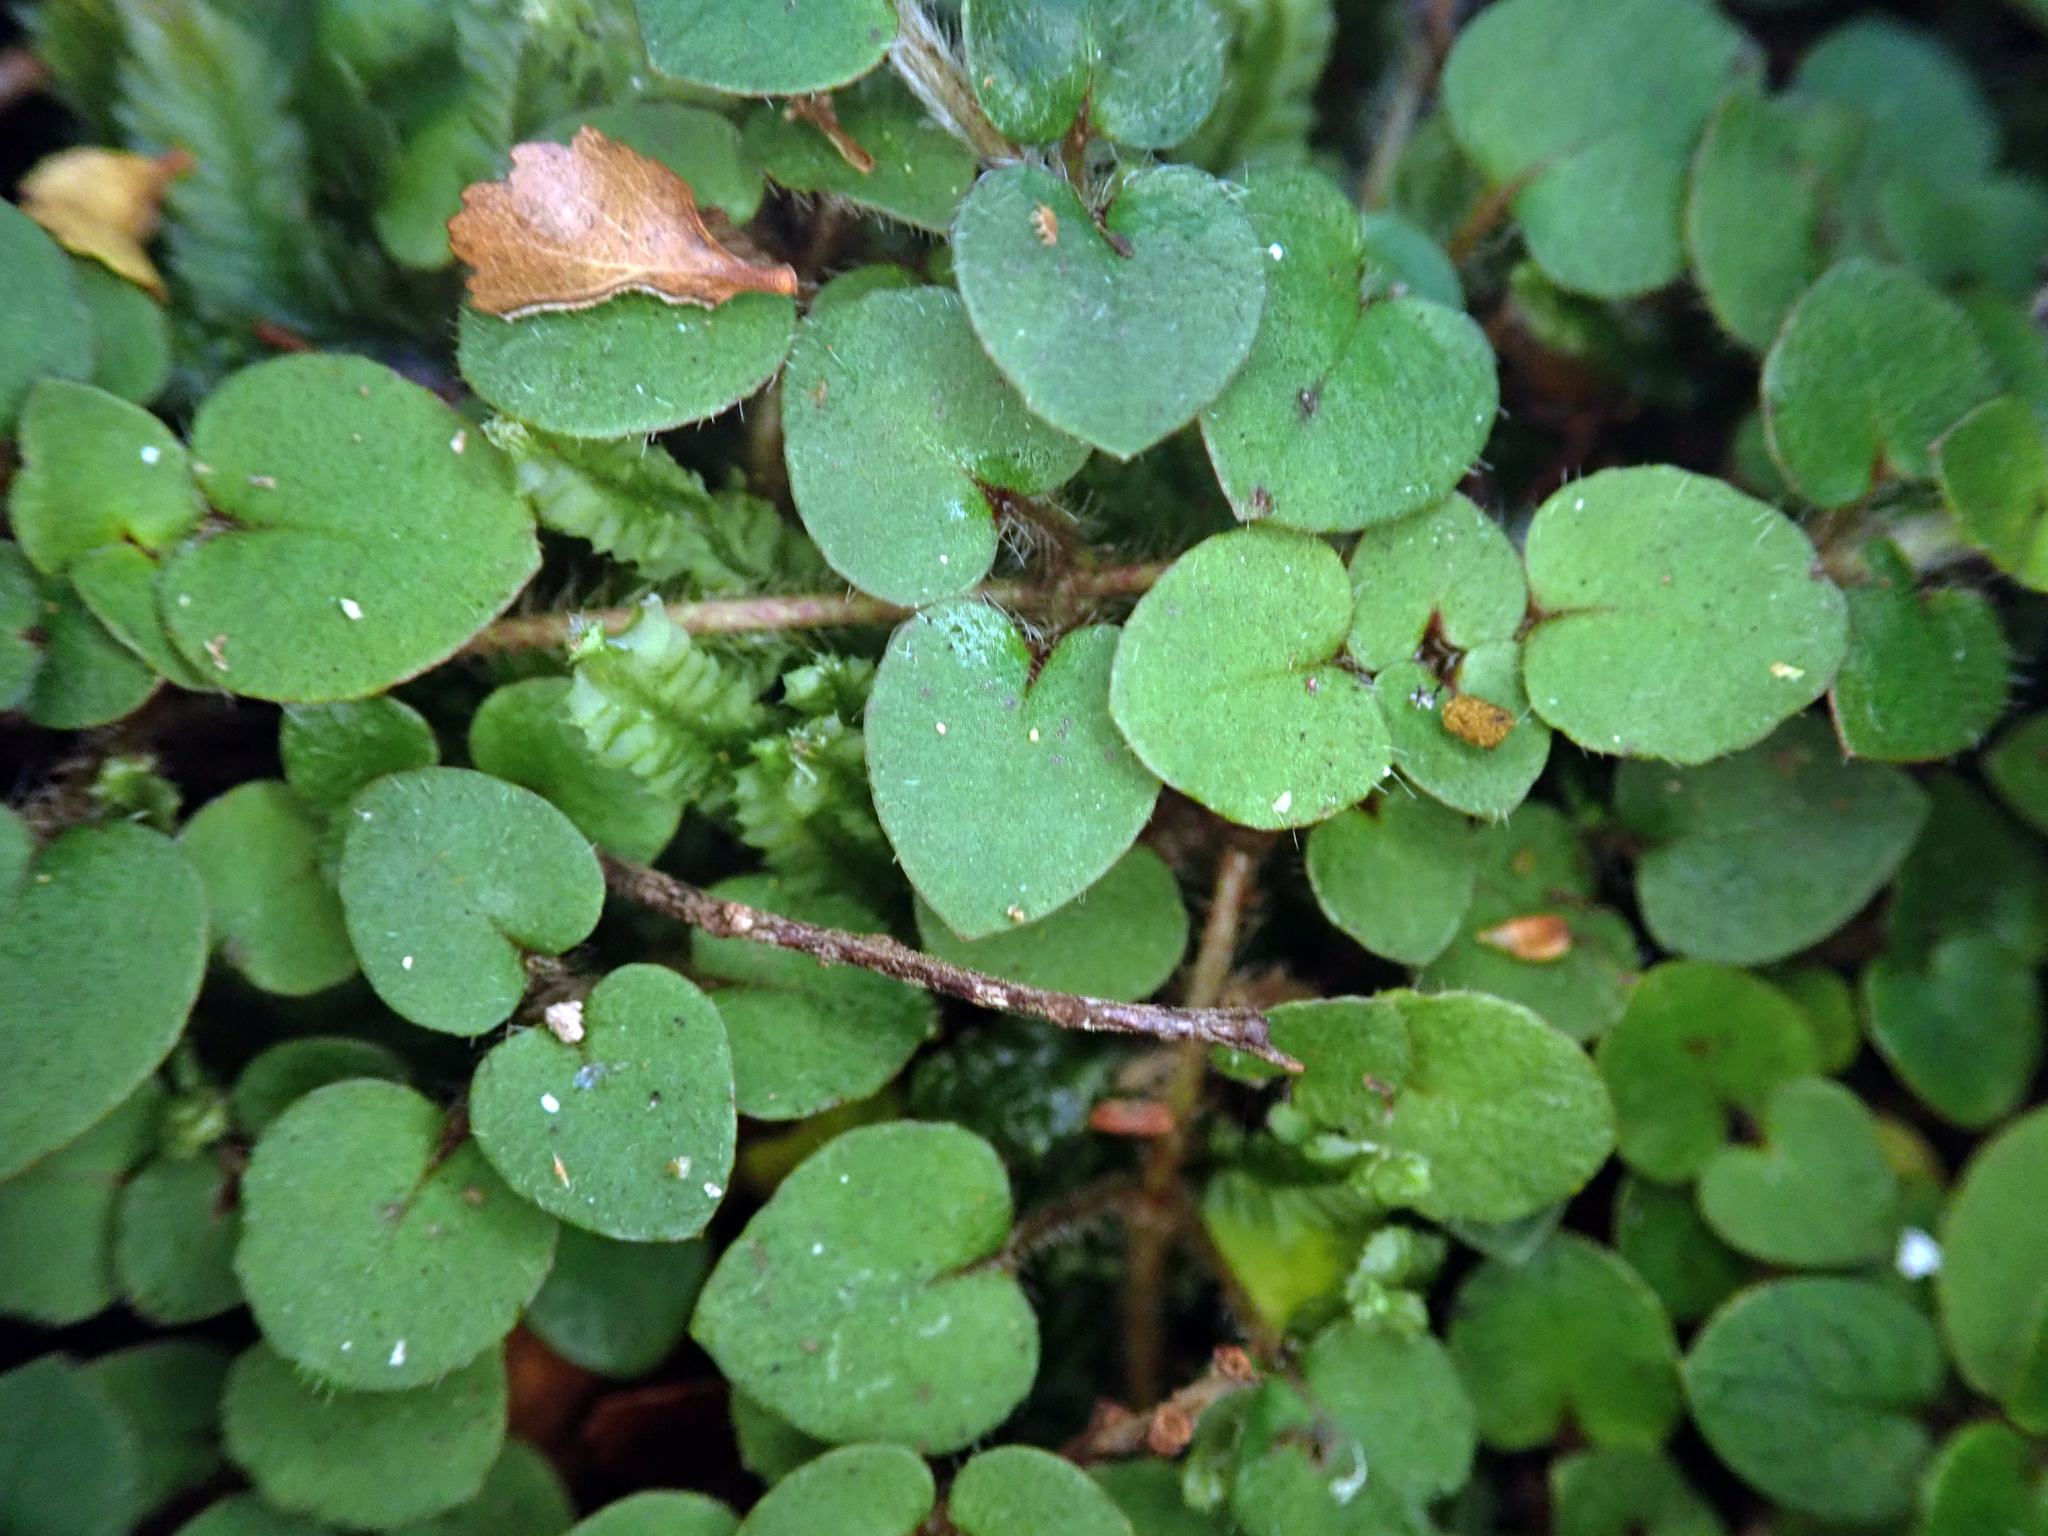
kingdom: Plantae
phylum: Tracheophyta
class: Magnoliopsida
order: Gentianales
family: Rubiaceae
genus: Nertera
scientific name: Nertera villosa
